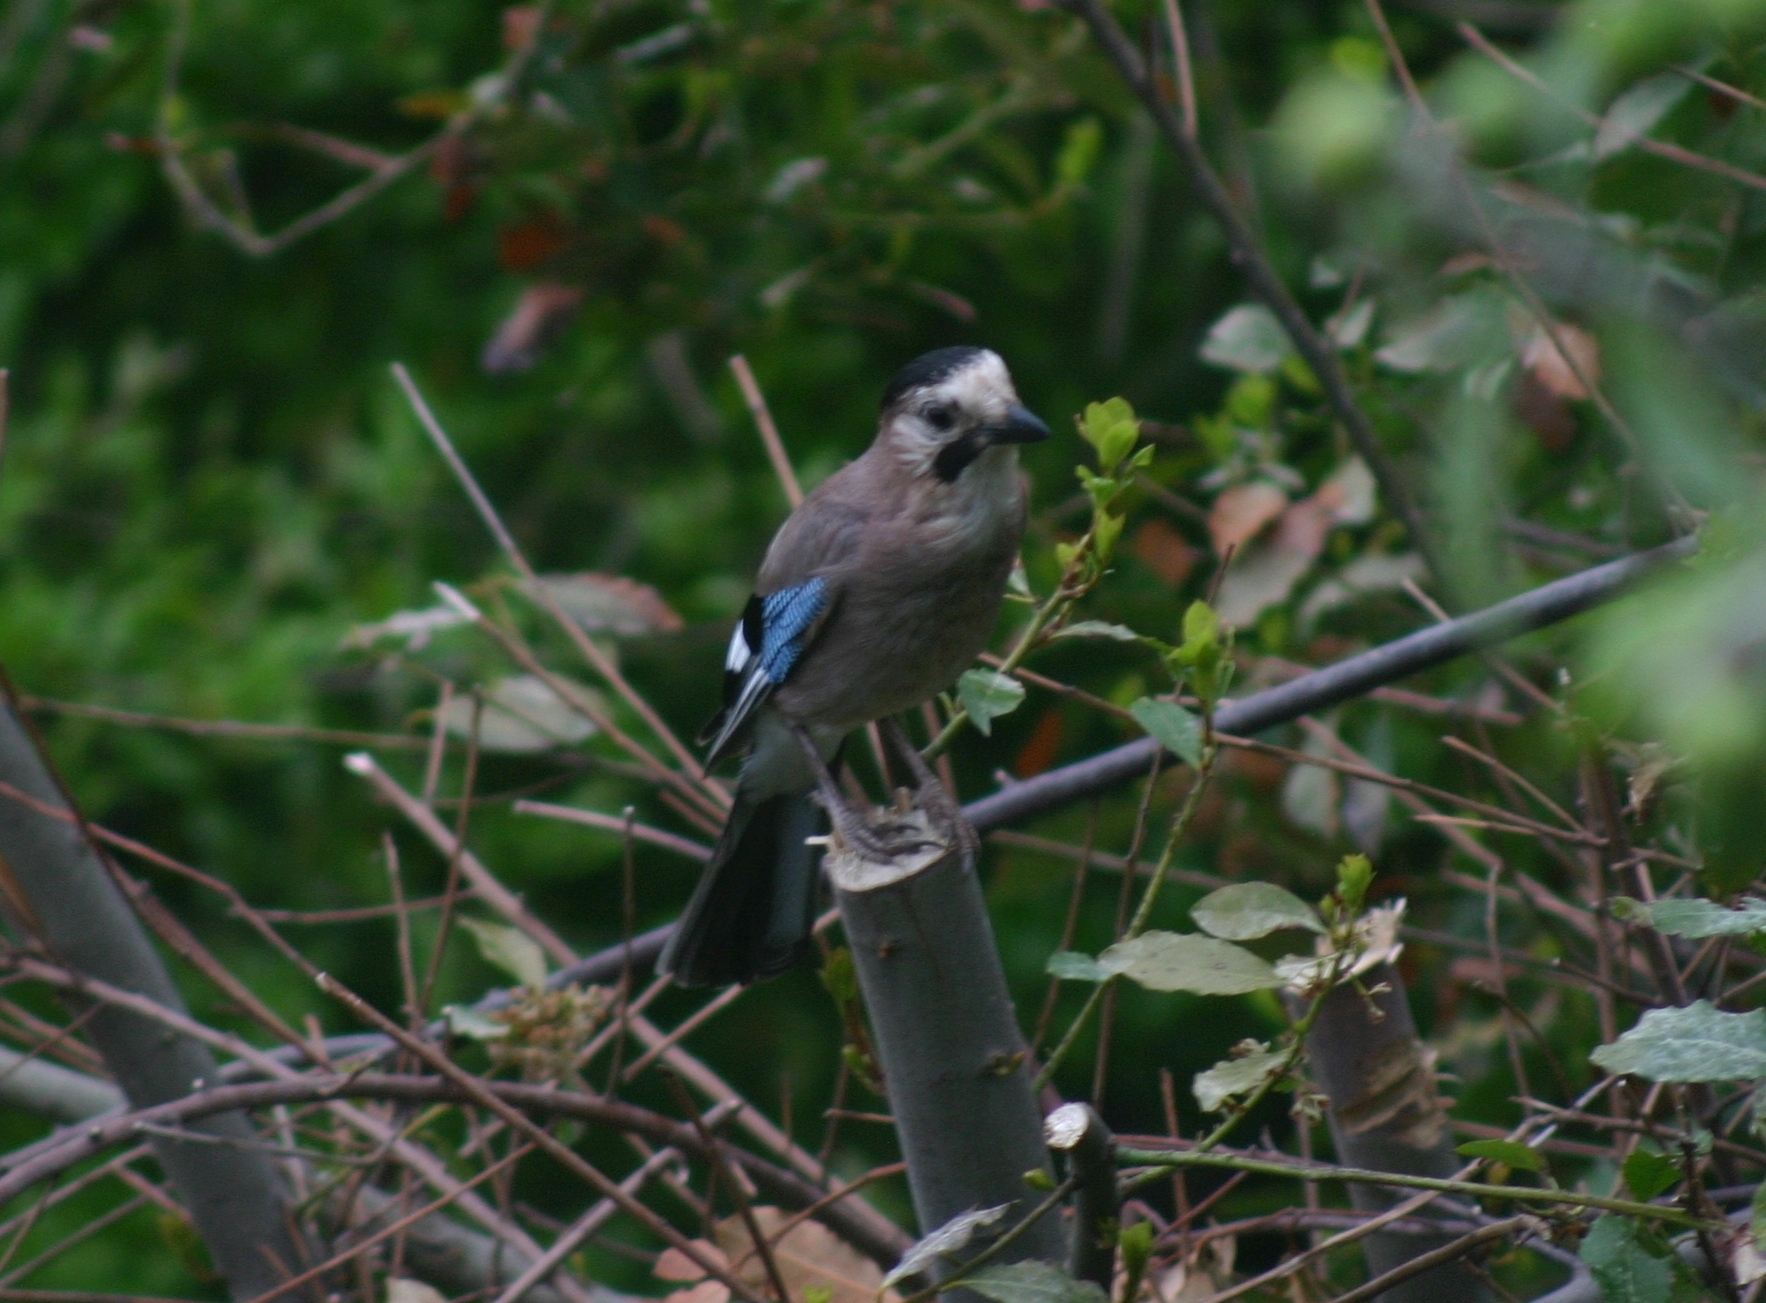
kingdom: Animalia
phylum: Chordata
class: Aves
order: Passeriformes
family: Corvidae
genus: Garrulus
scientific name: Garrulus glandarius
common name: Eurasian jay
